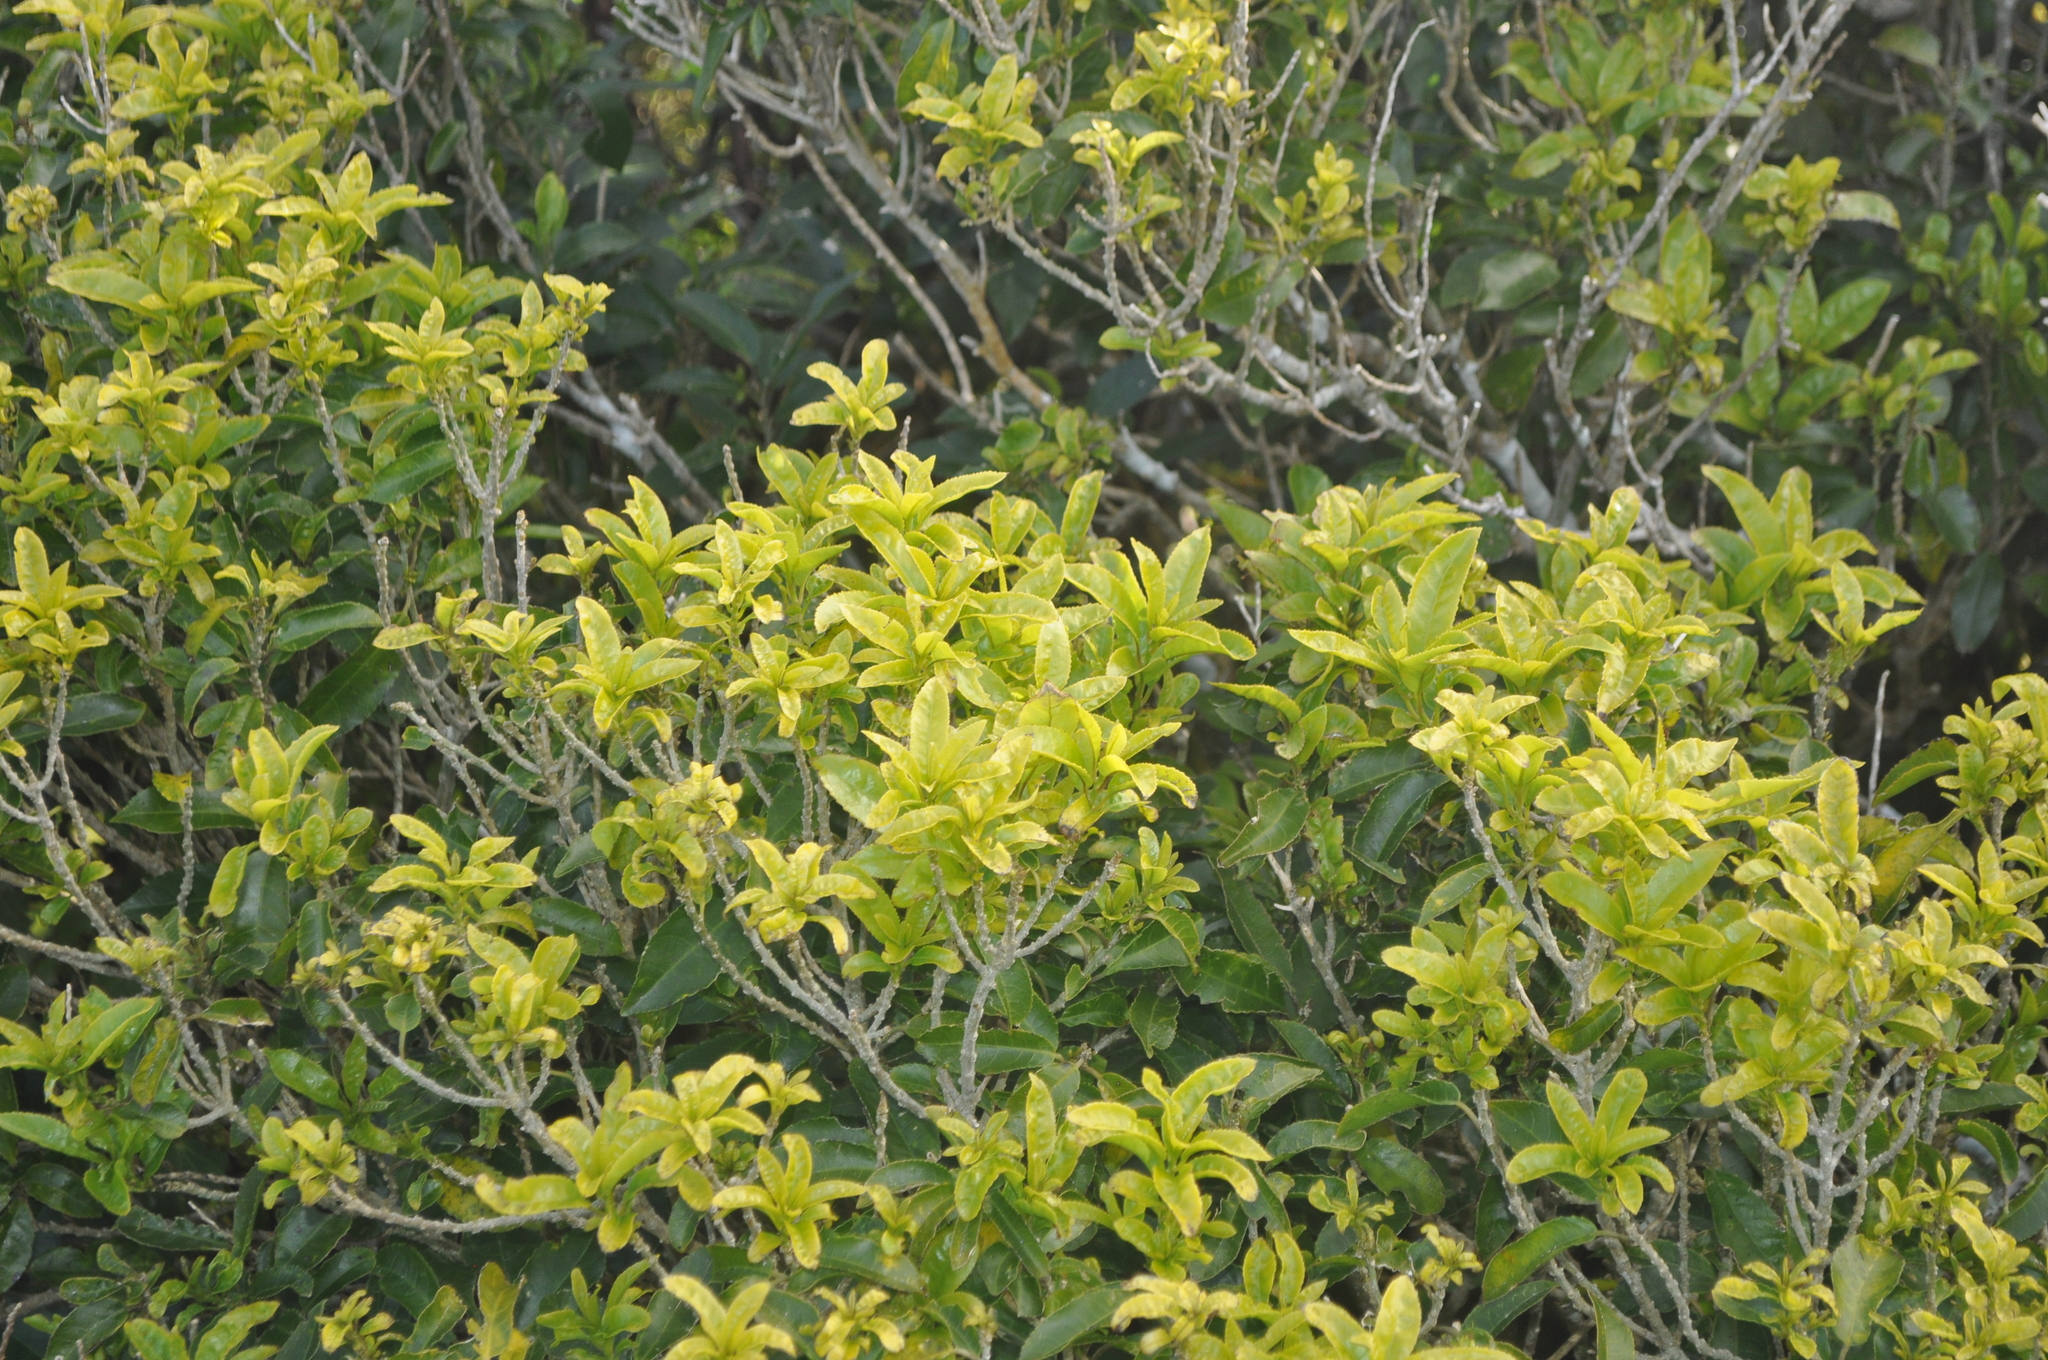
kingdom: Plantae
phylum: Tracheophyta
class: Magnoliopsida
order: Malpighiales
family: Violaceae
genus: Melicytus
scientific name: Melicytus ramiflorus
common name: Mahoe
